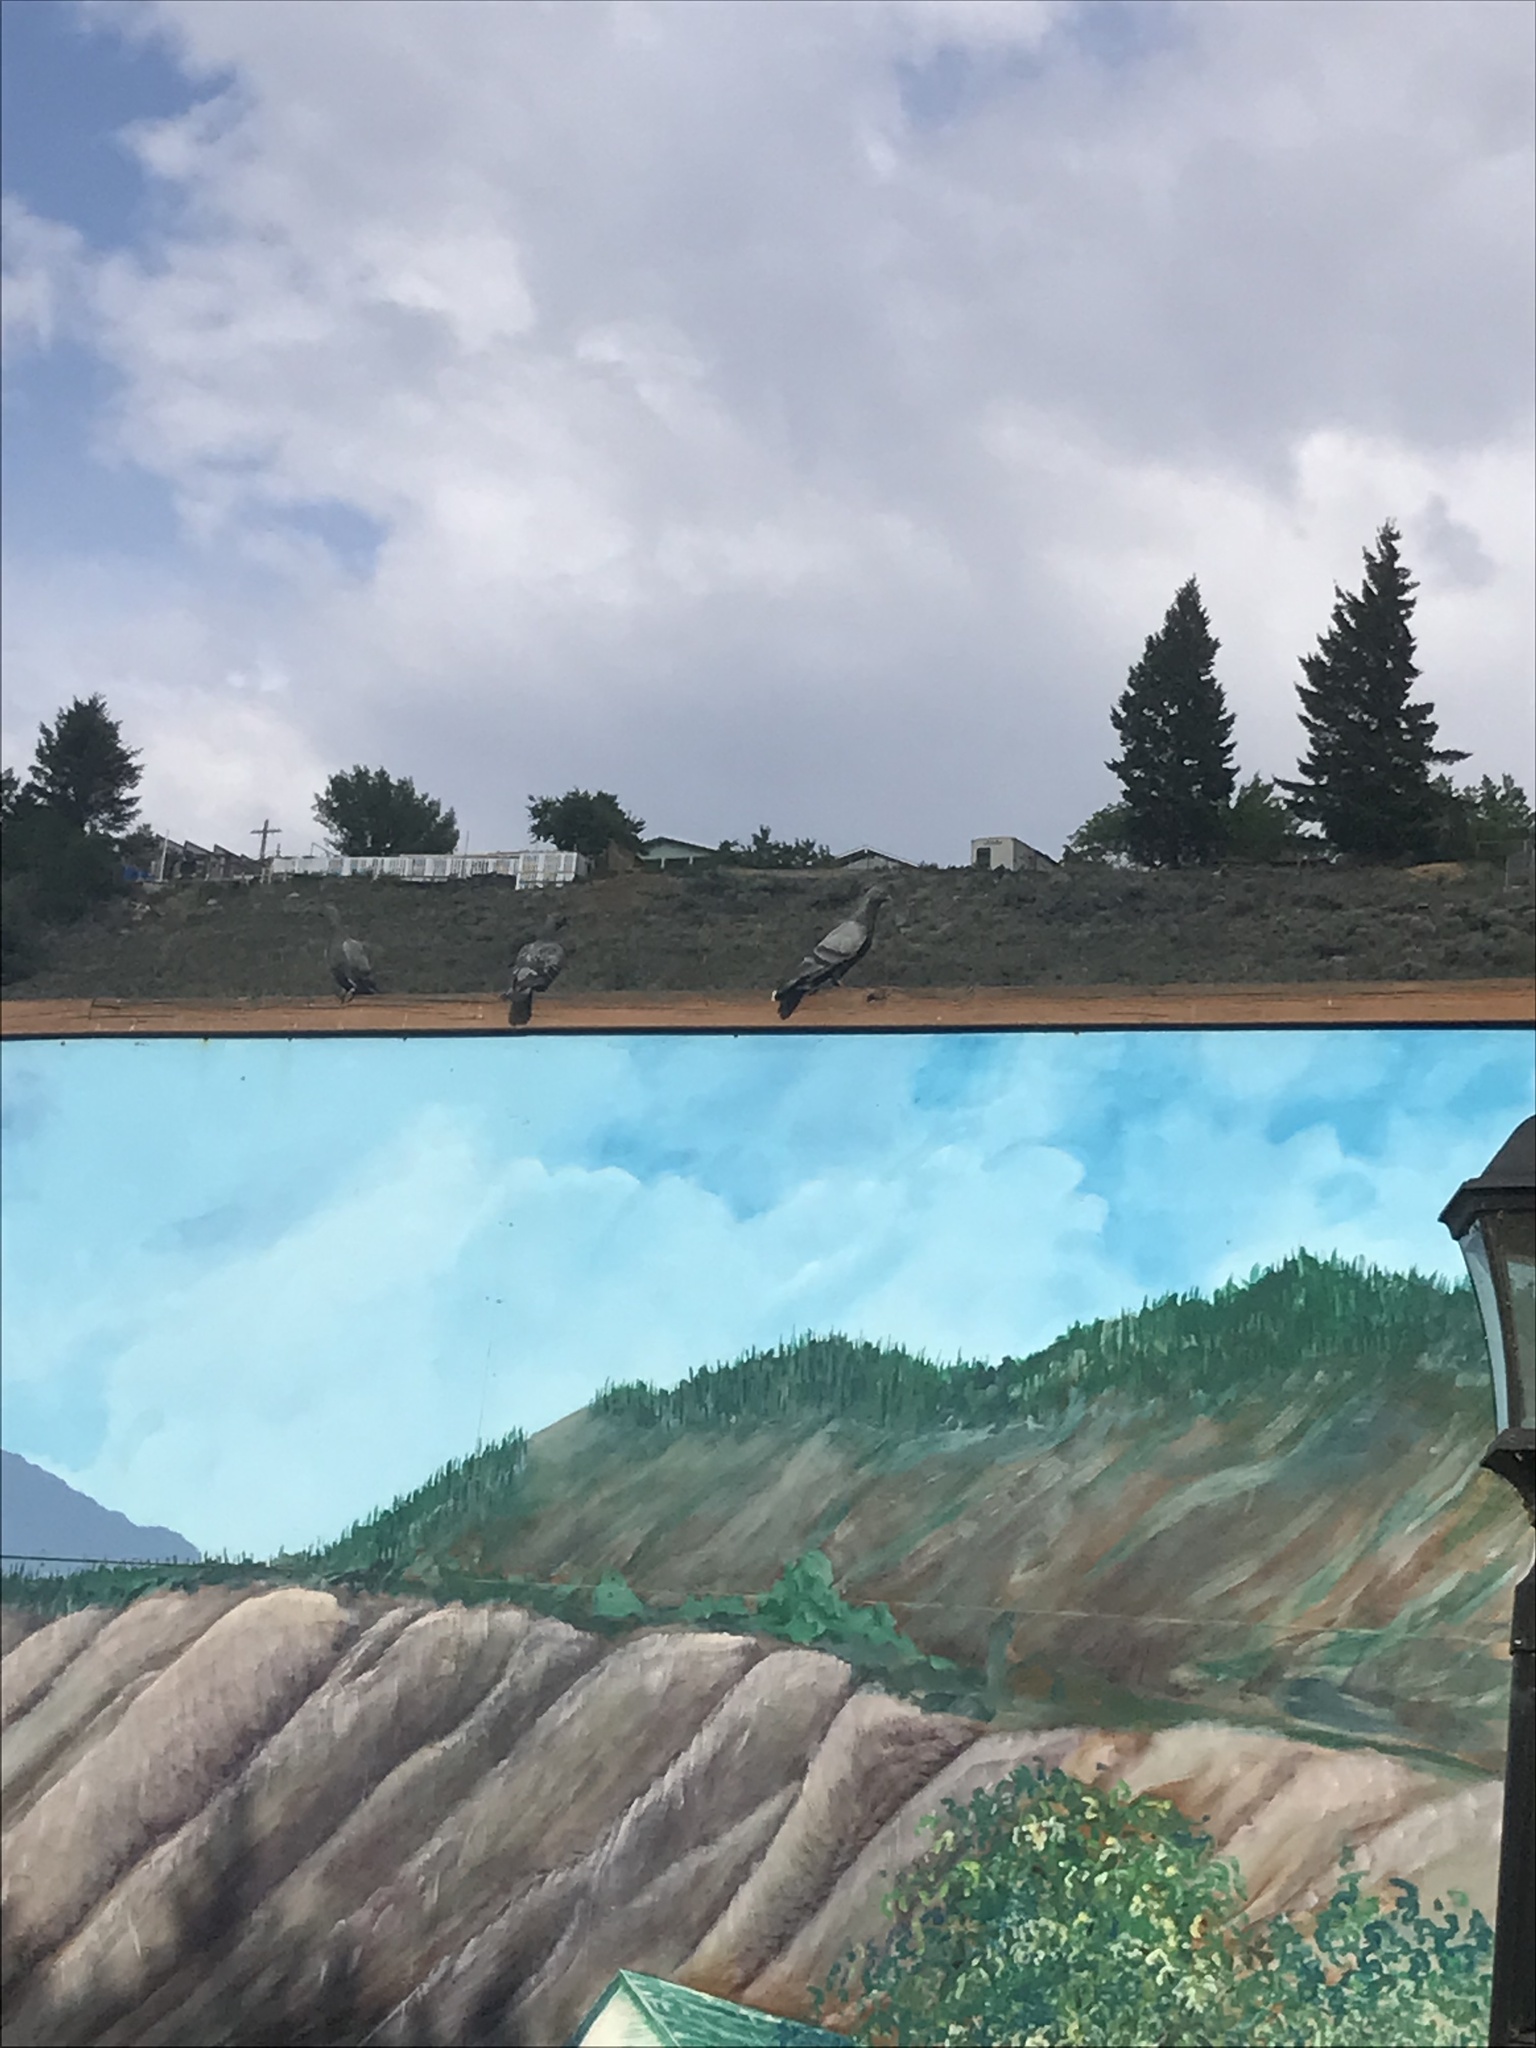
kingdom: Animalia
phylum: Chordata
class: Aves
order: Columbiformes
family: Columbidae
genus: Columba
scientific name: Columba livia
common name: Rock pigeon
